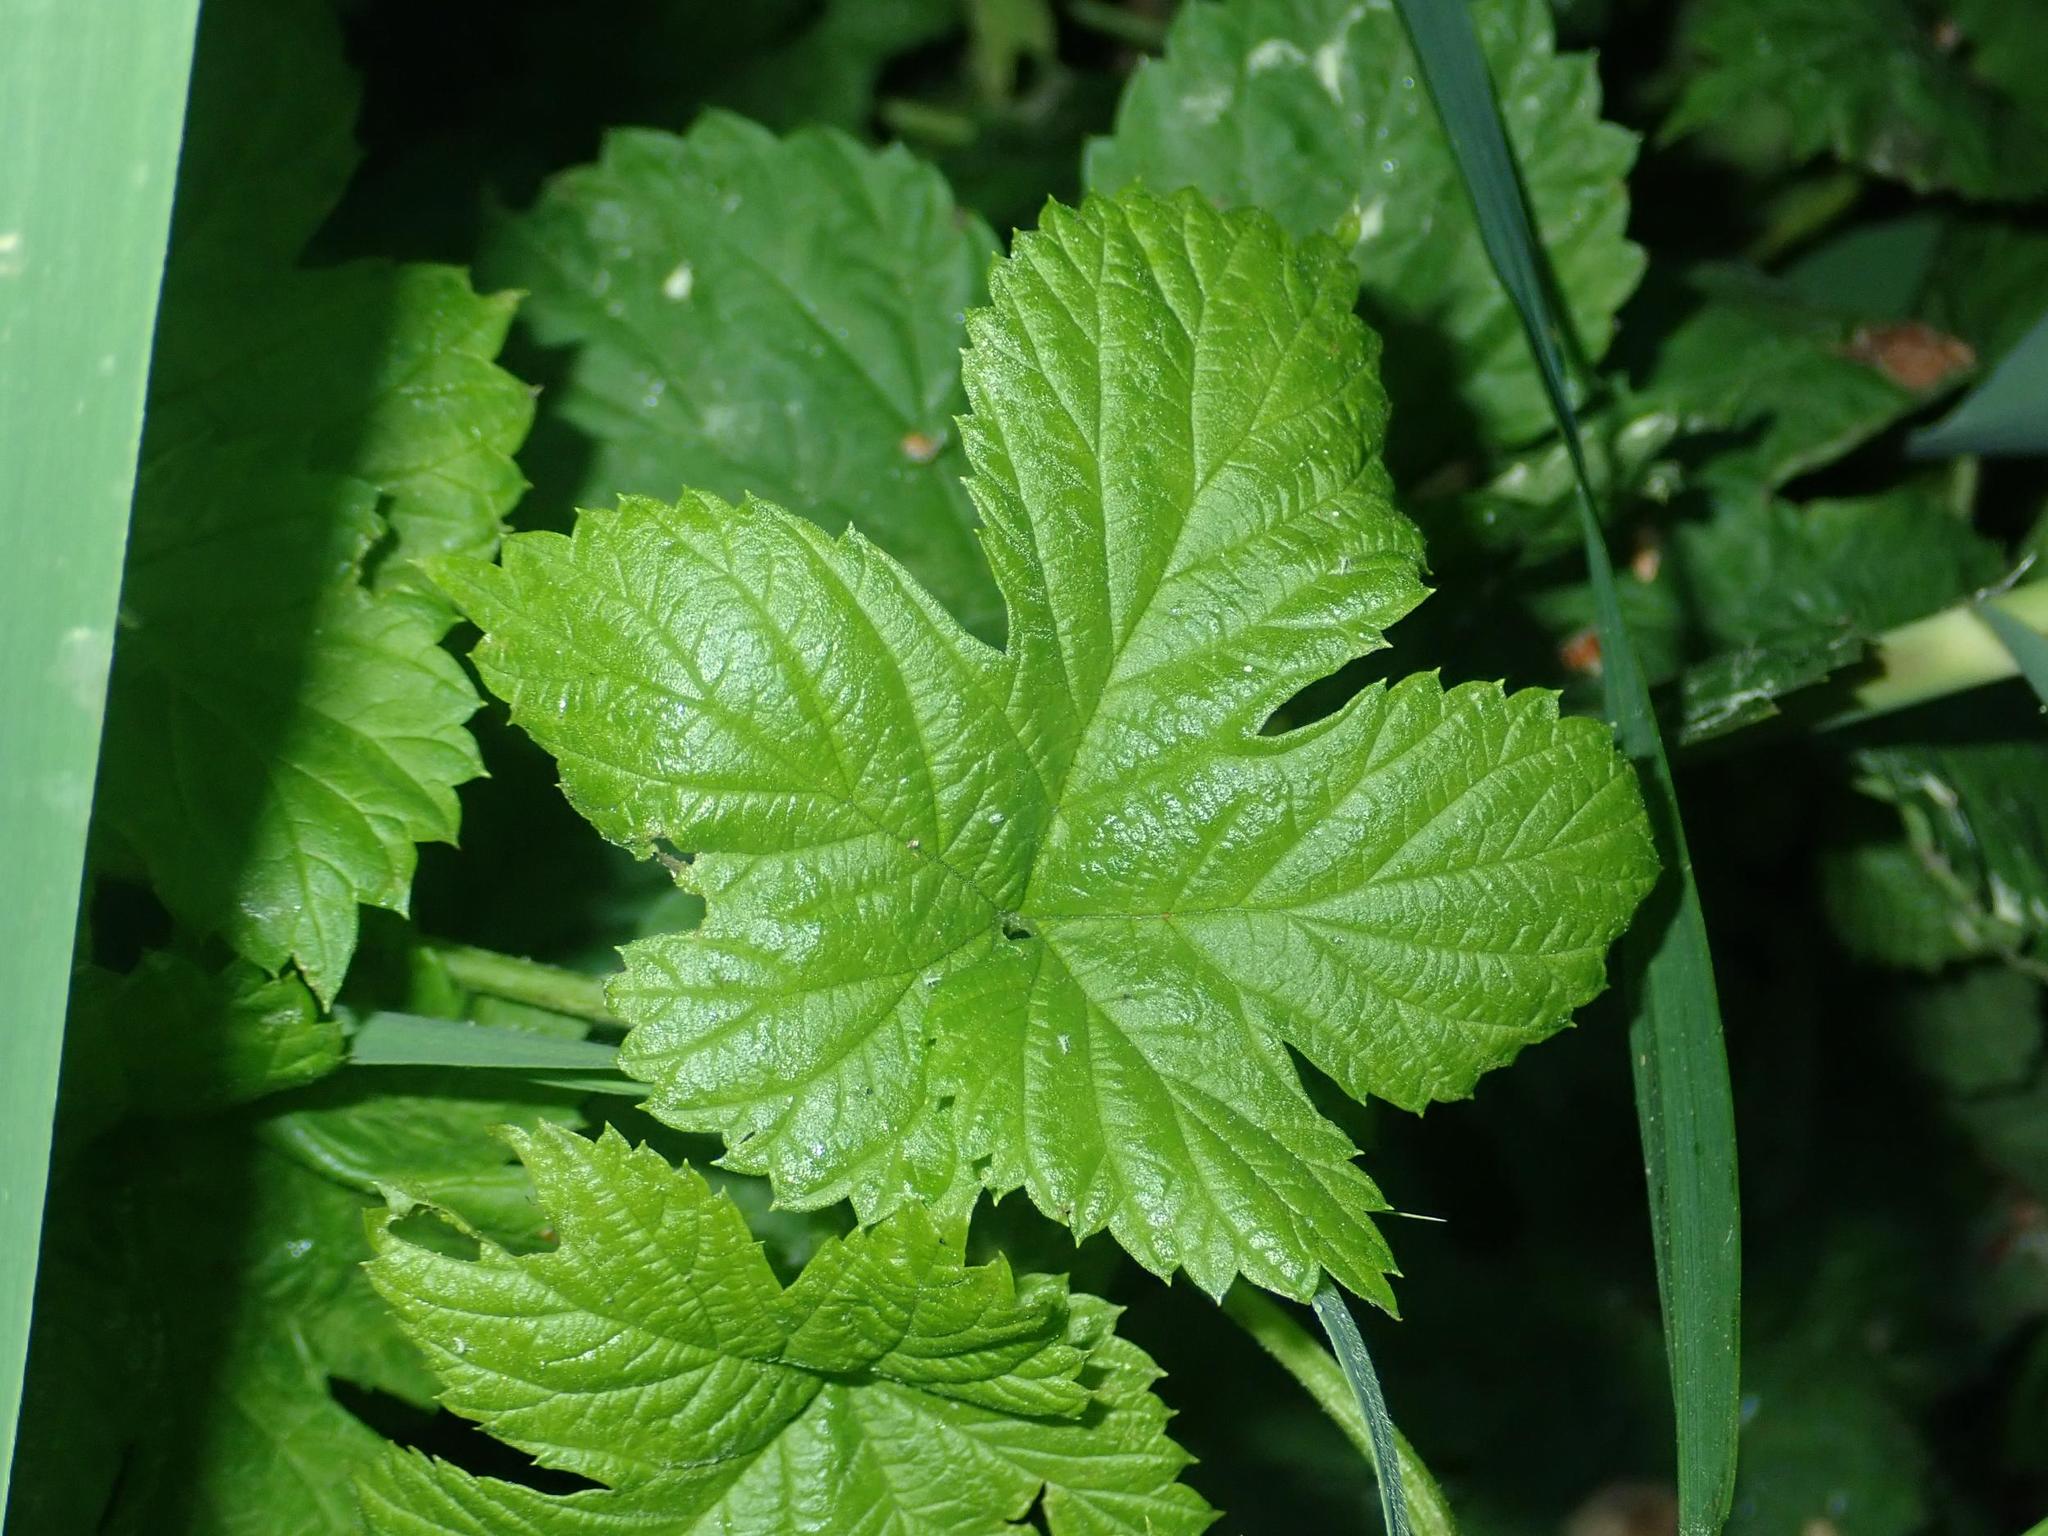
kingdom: Plantae
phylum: Tracheophyta
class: Magnoliopsida
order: Rosales
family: Cannabaceae
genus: Humulus
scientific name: Humulus lupulus
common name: Hop
